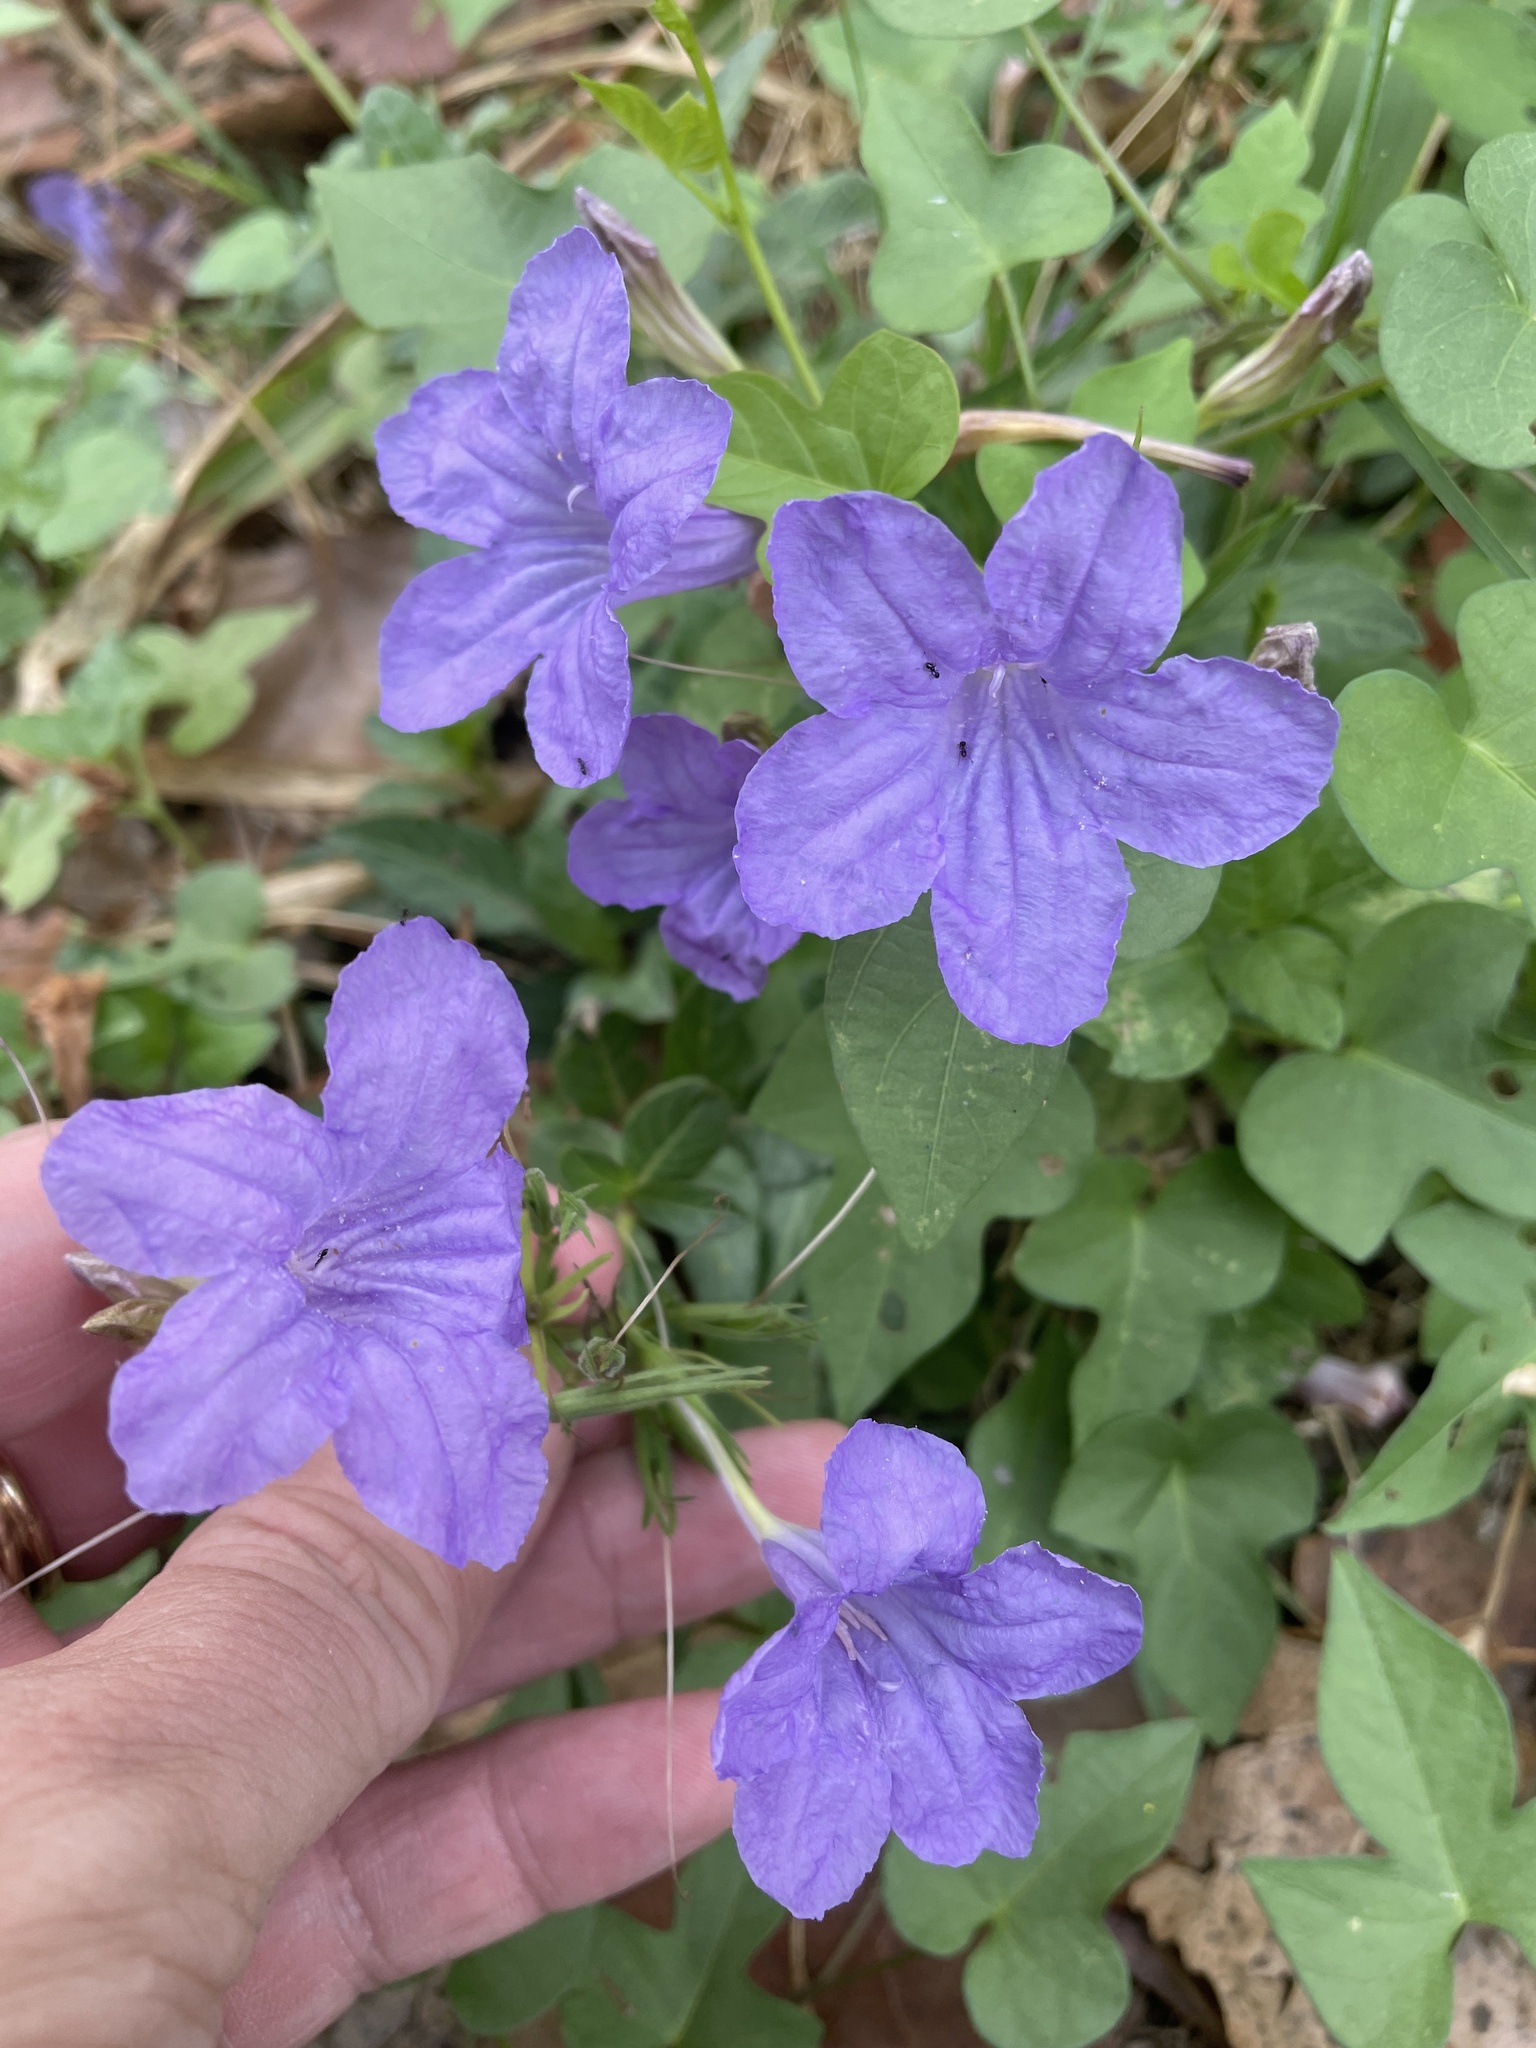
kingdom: Plantae
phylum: Tracheophyta
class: Magnoliopsida
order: Lamiales
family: Acanthaceae
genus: Ruellia
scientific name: Ruellia ciliatiflora
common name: Hairyflower wild petunia
